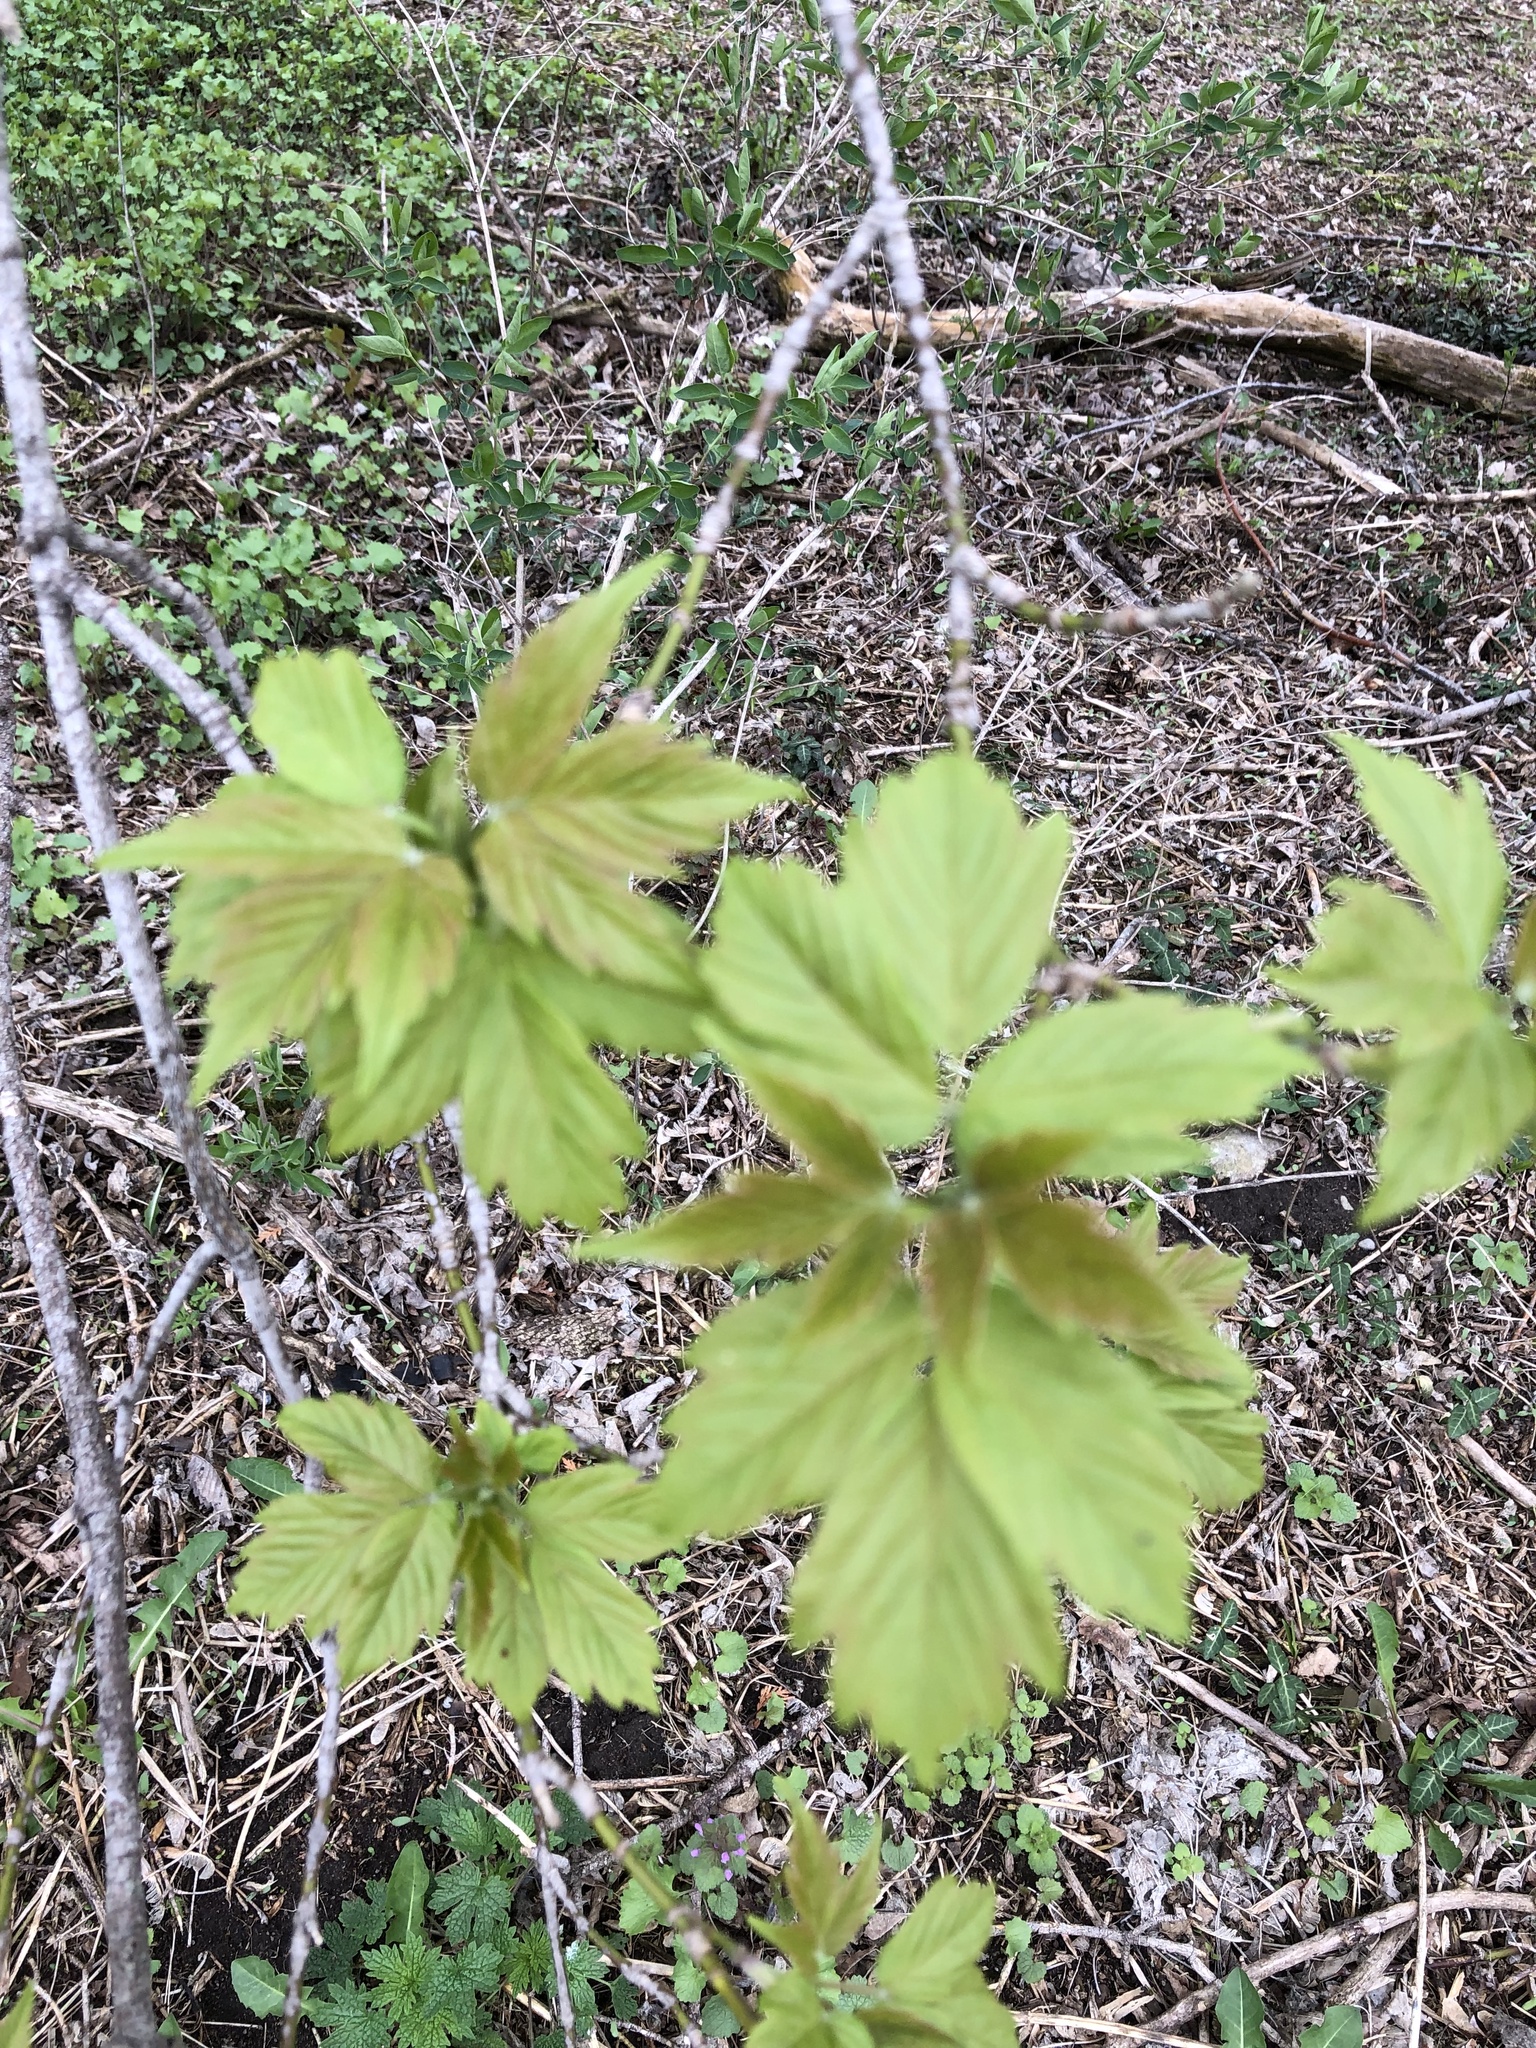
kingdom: Plantae
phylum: Tracheophyta
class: Magnoliopsida
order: Sapindales
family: Sapindaceae
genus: Acer
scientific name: Acer negundo
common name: Ashleaf maple
